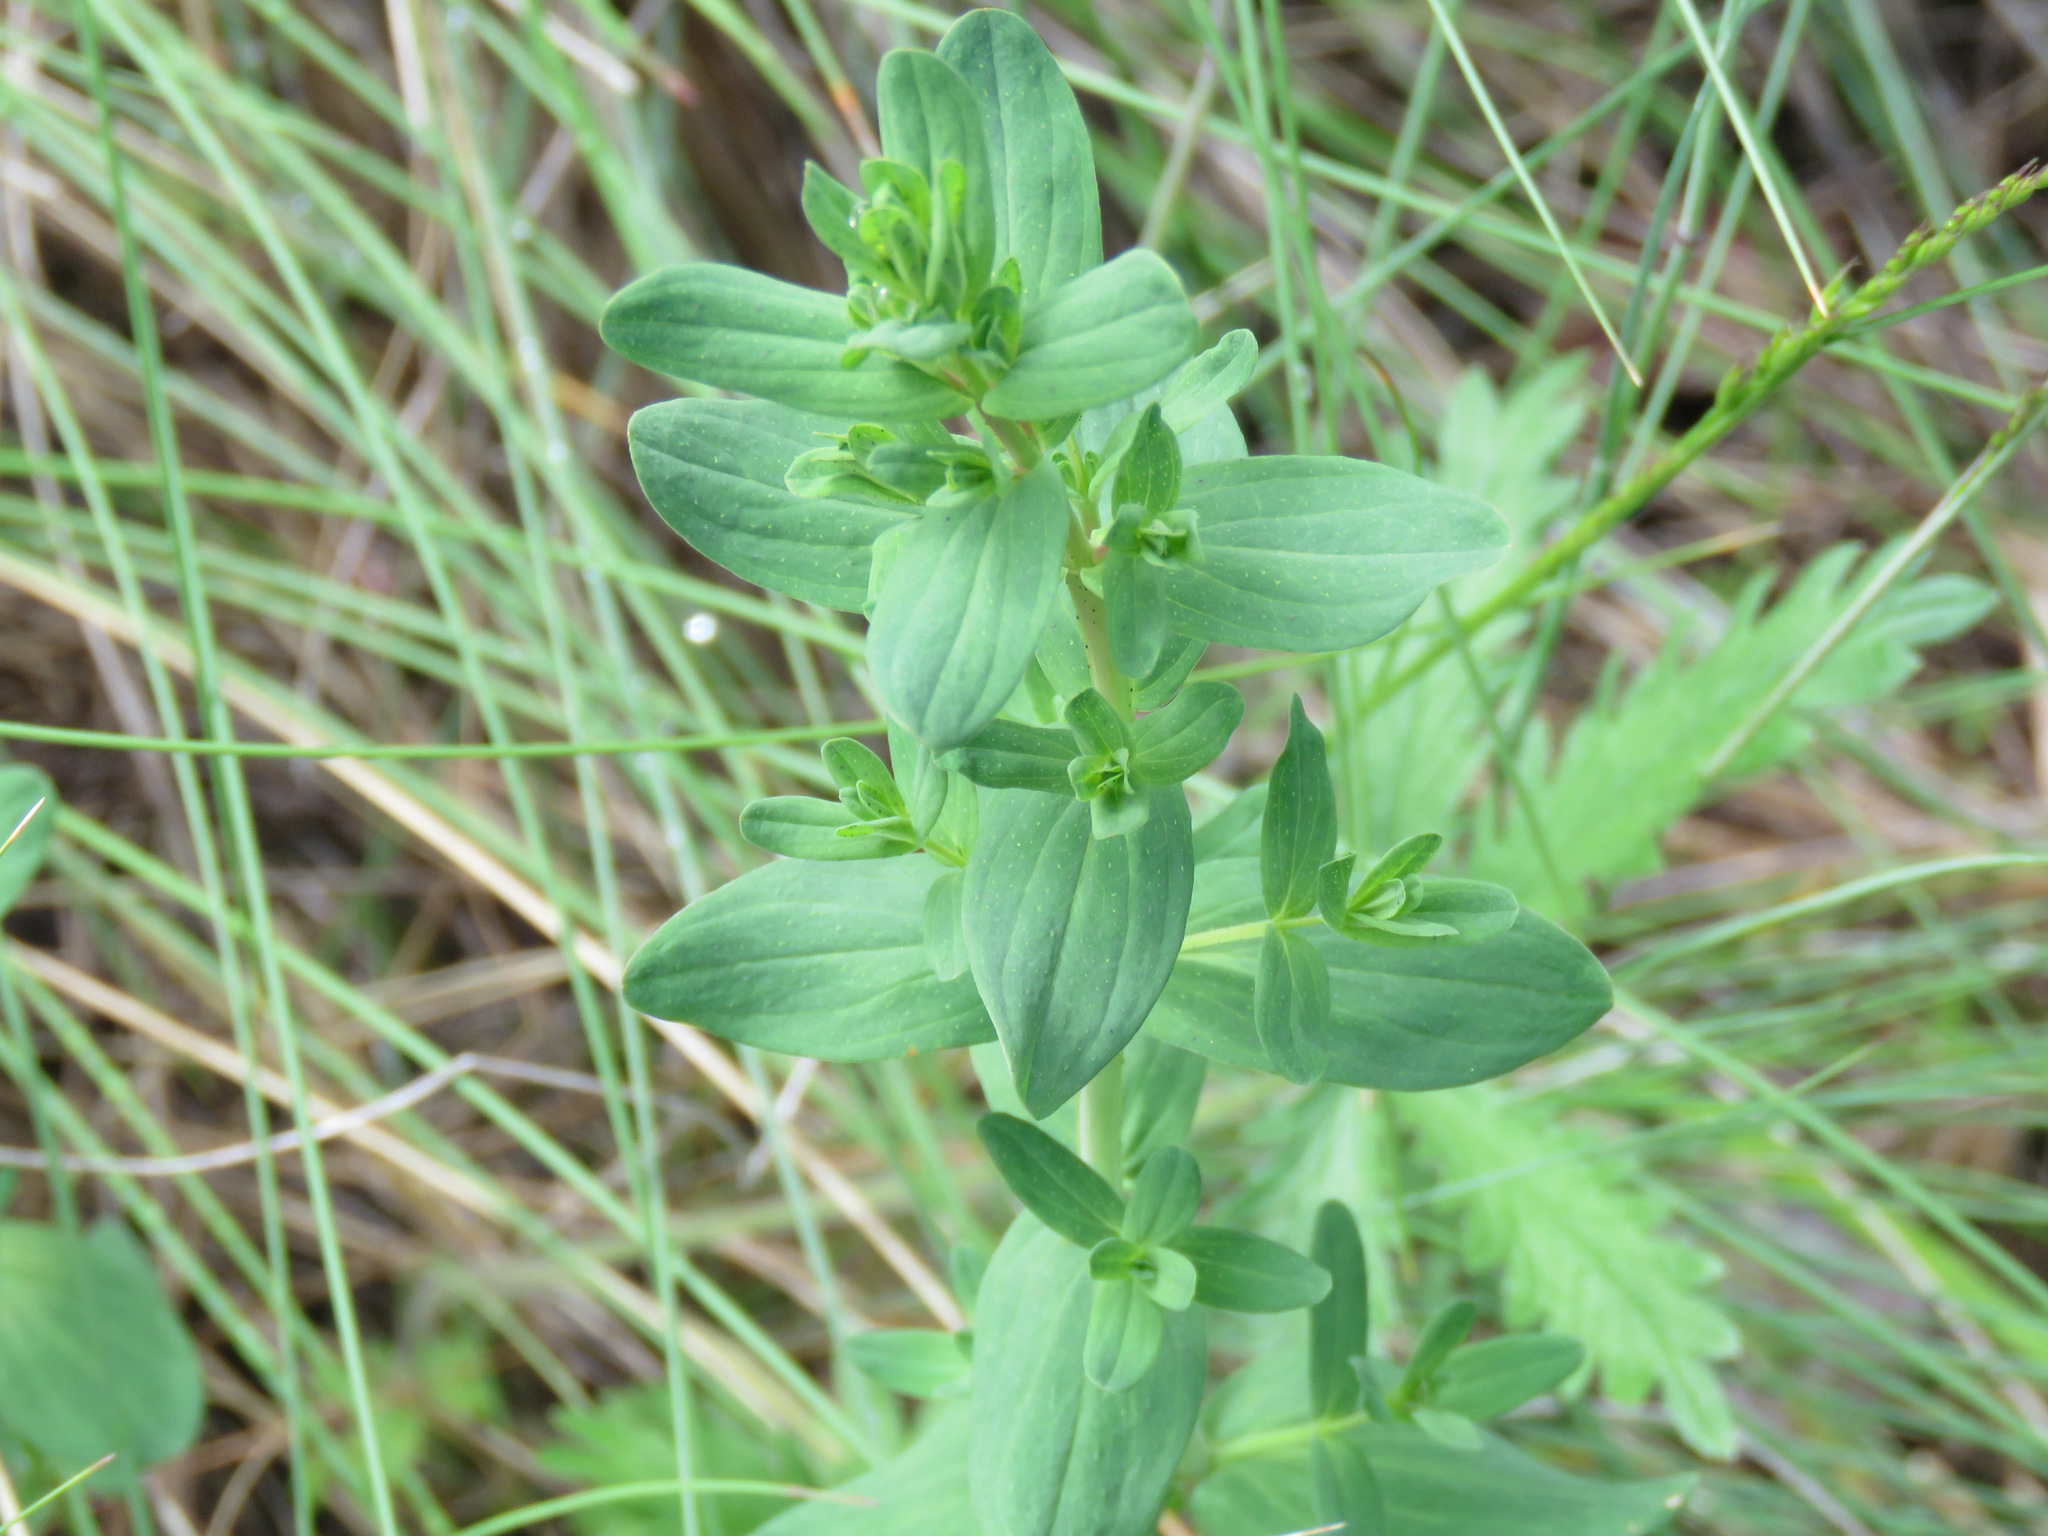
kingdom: Plantae
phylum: Tracheophyta
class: Magnoliopsida
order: Malpighiales
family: Hypericaceae
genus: Hypericum
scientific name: Hypericum perforatum
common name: Common st. johnswort
